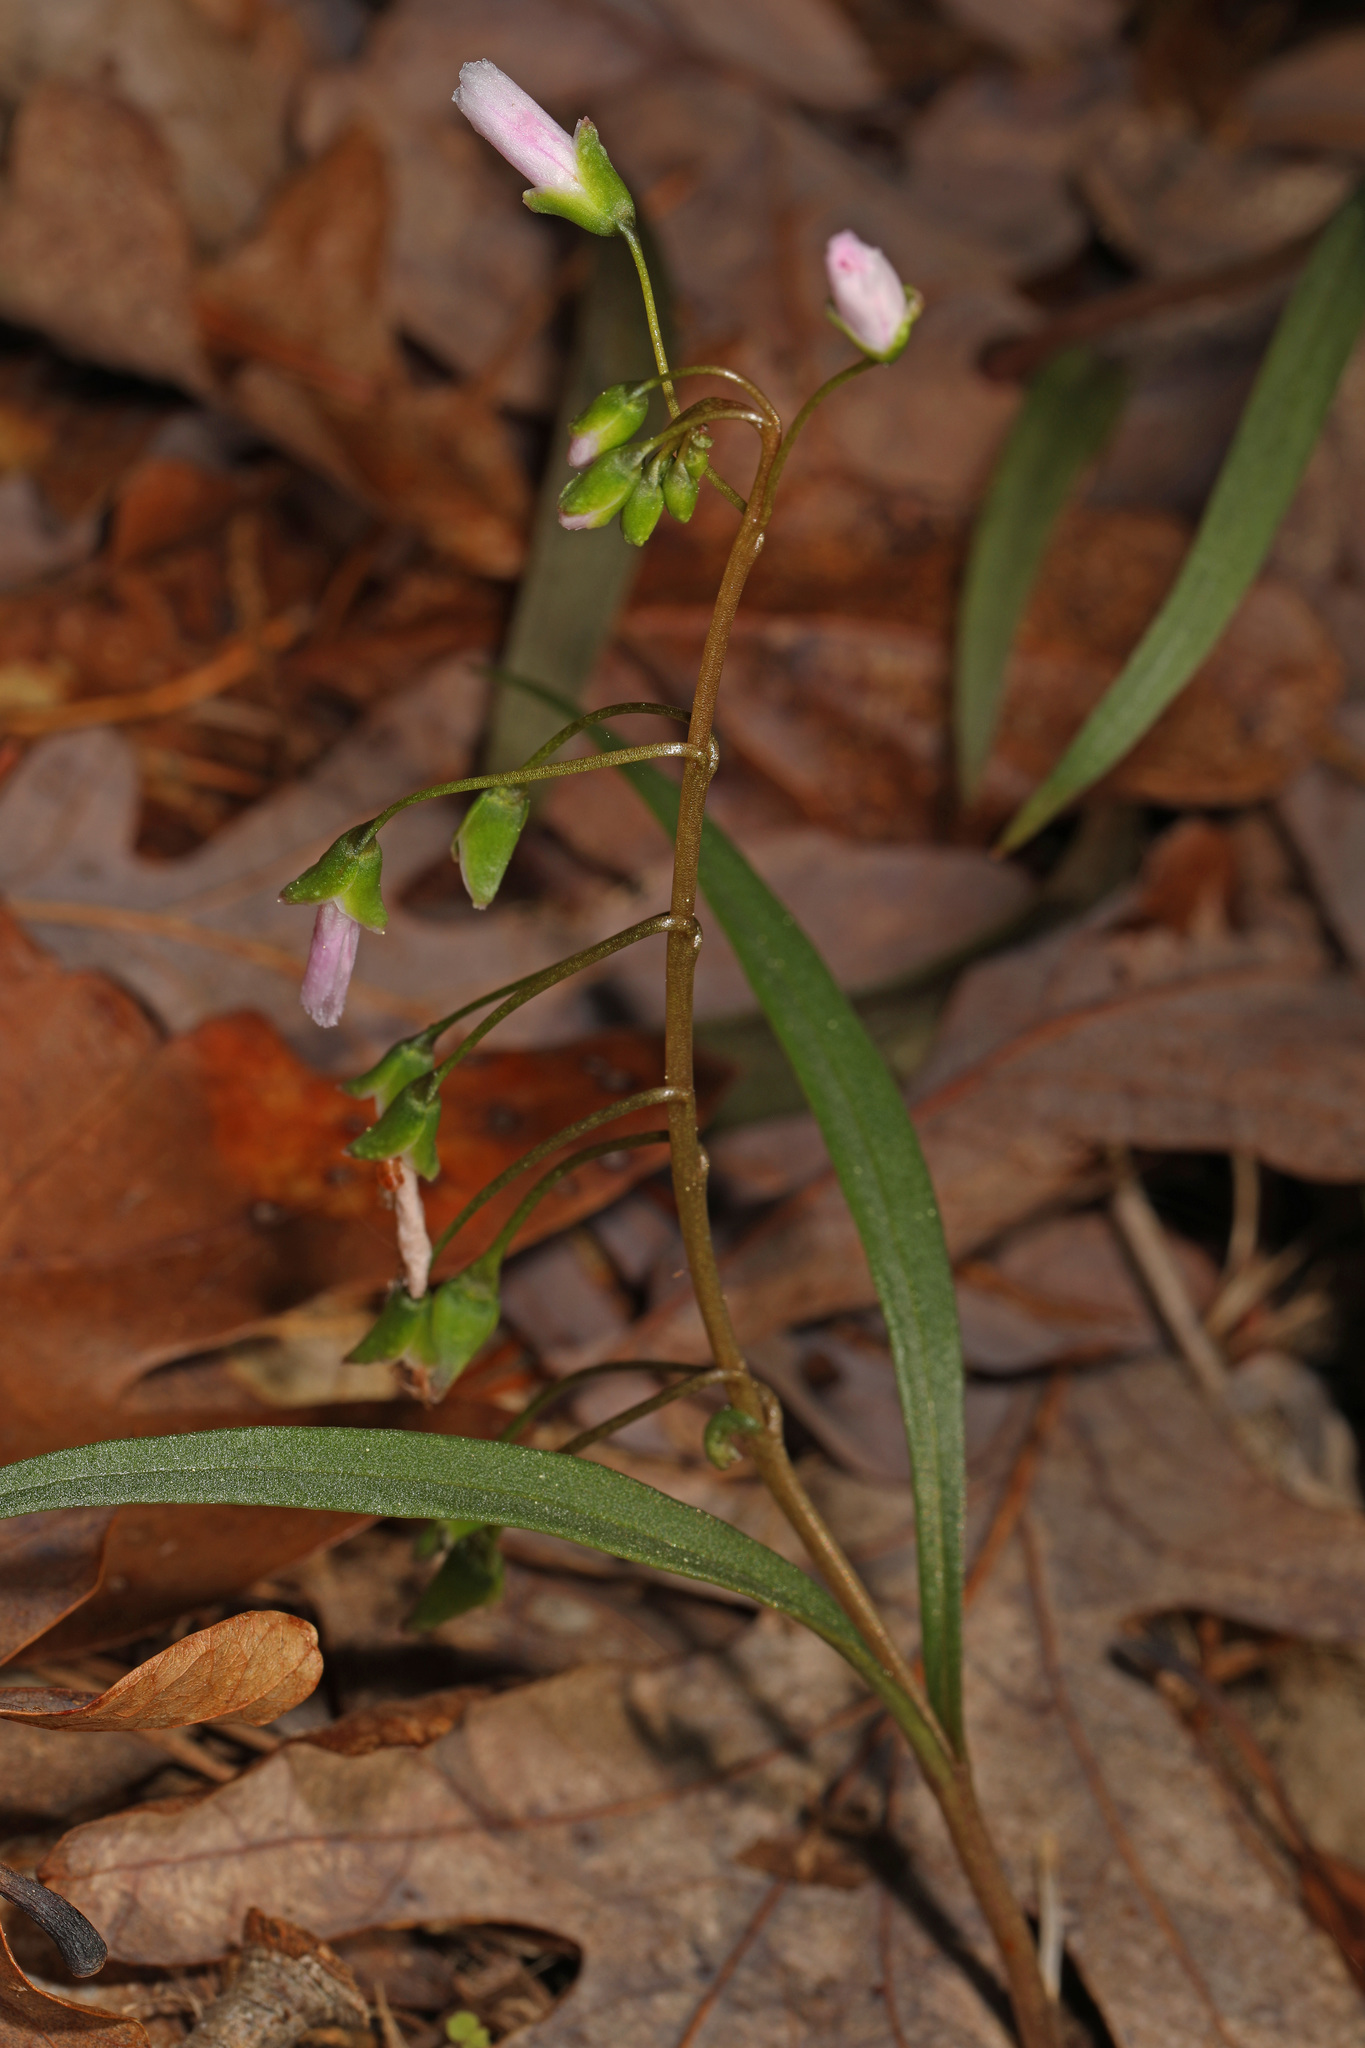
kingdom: Plantae
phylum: Tracheophyta
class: Magnoliopsida
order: Caryophyllales
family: Montiaceae
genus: Claytonia
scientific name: Claytonia virginica
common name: Virginia springbeauty
